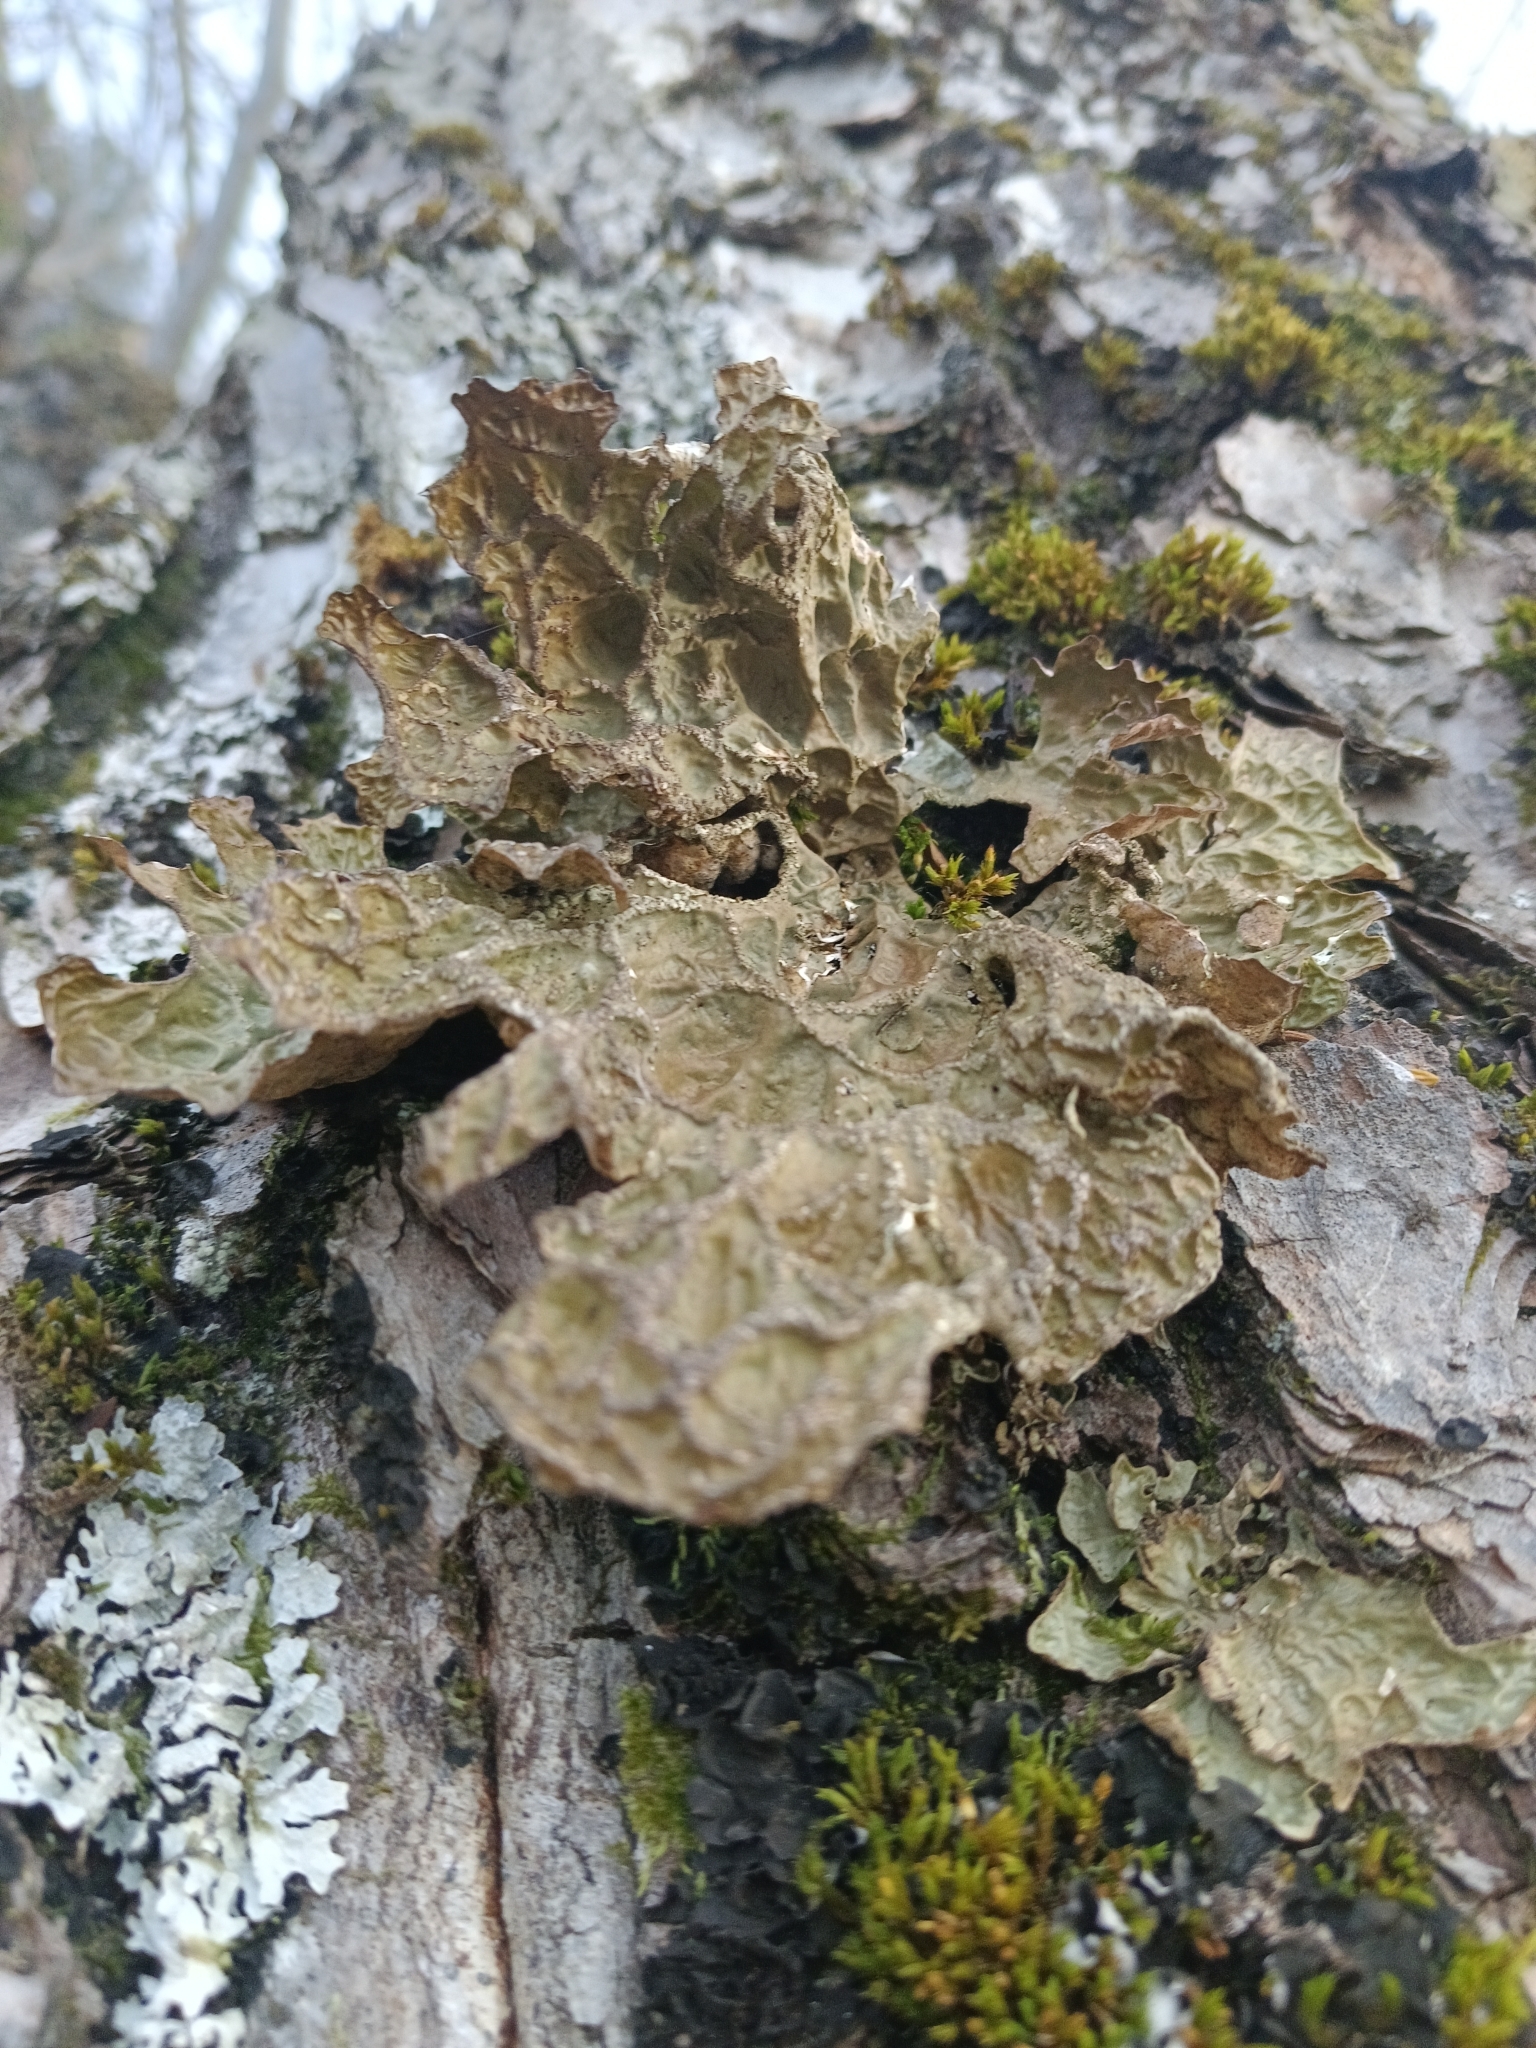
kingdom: Fungi
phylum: Ascomycota
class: Lecanoromycetes
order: Peltigerales
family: Lobariaceae
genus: Lobaria
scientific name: Lobaria pulmonaria
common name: Lungwort
